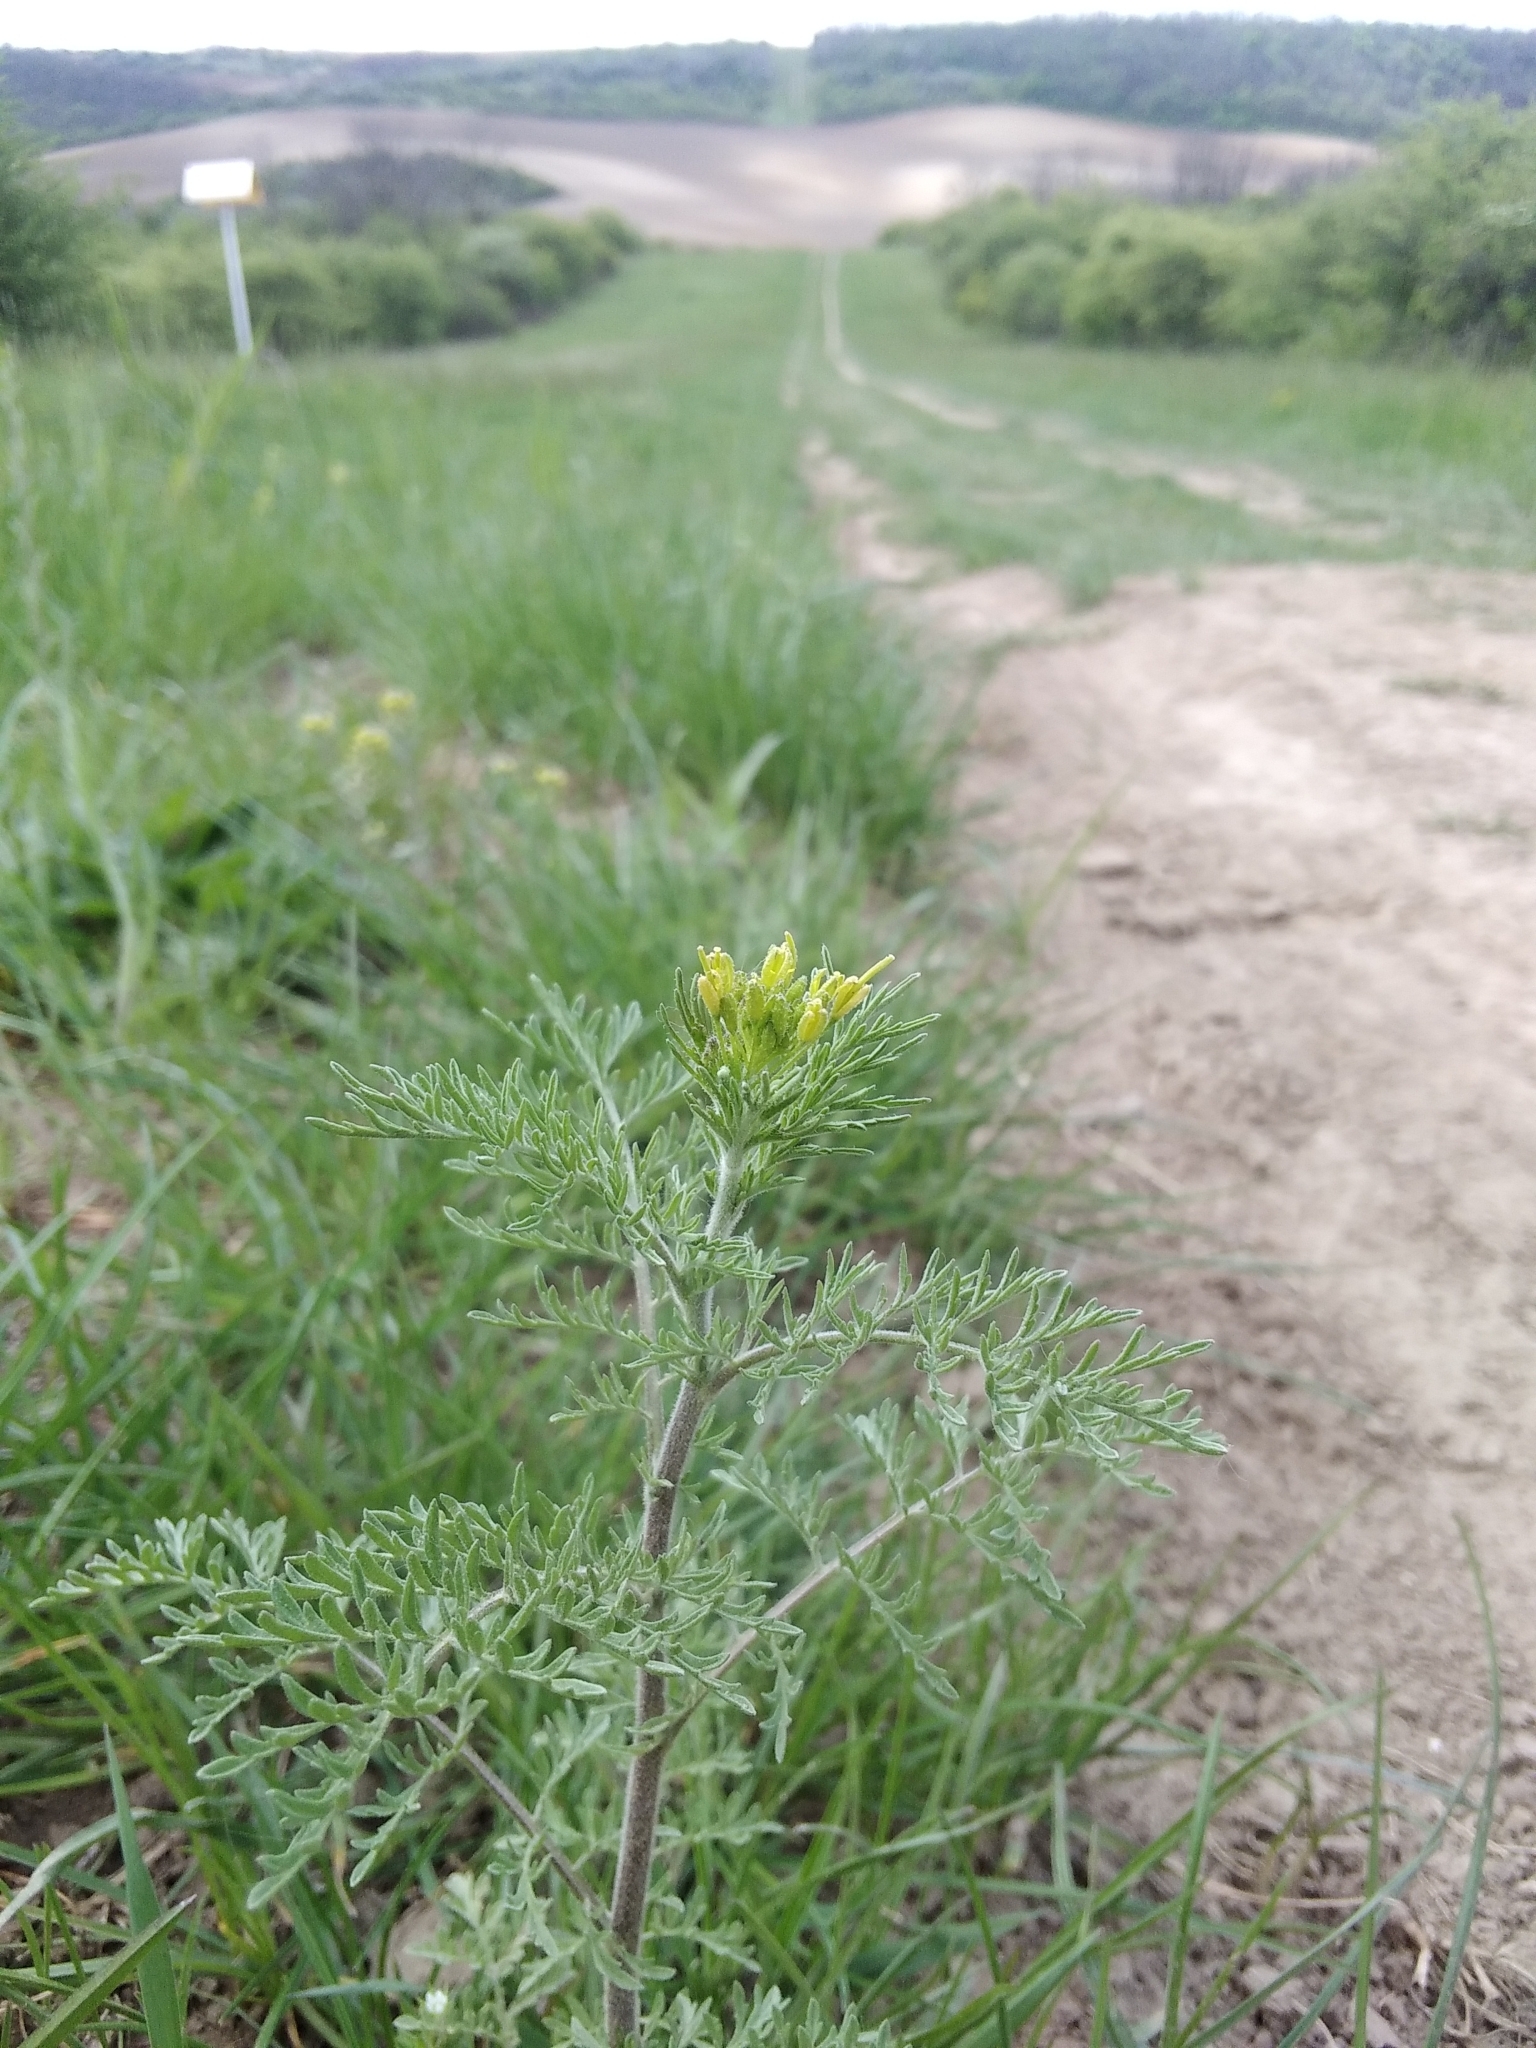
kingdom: Plantae
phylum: Tracheophyta
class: Magnoliopsida
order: Brassicales
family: Brassicaceae
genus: Descurainia
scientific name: Descurainia sophia
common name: Flixweed
